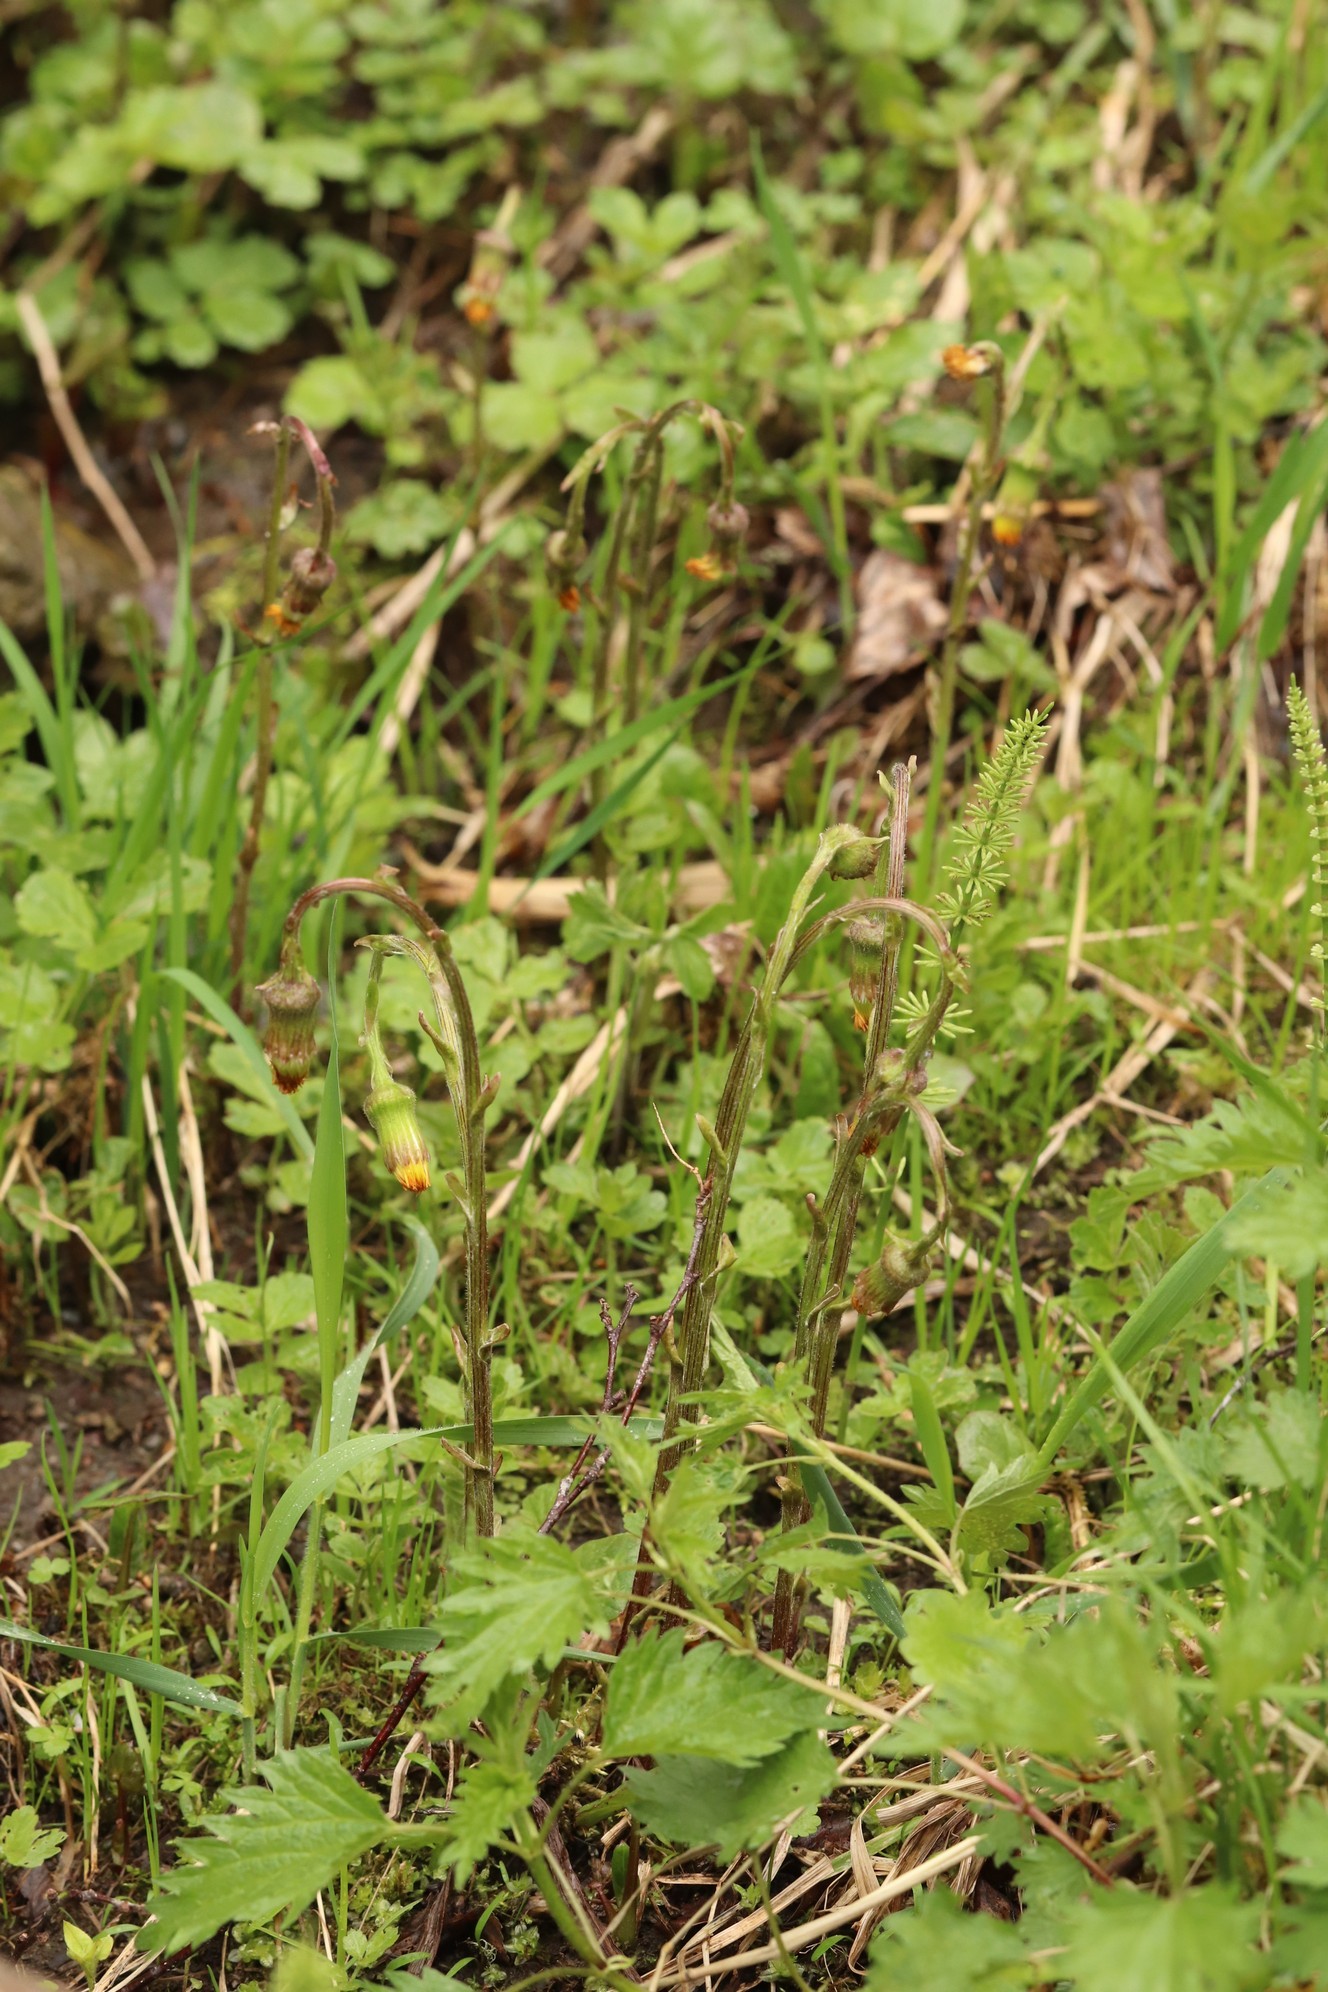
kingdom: Plantae
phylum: Tracheophyta
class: Magnoliopsida
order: Asterales
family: Asteraceae
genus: Tussilago
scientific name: Tussilago farfara
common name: Coltsfoot
